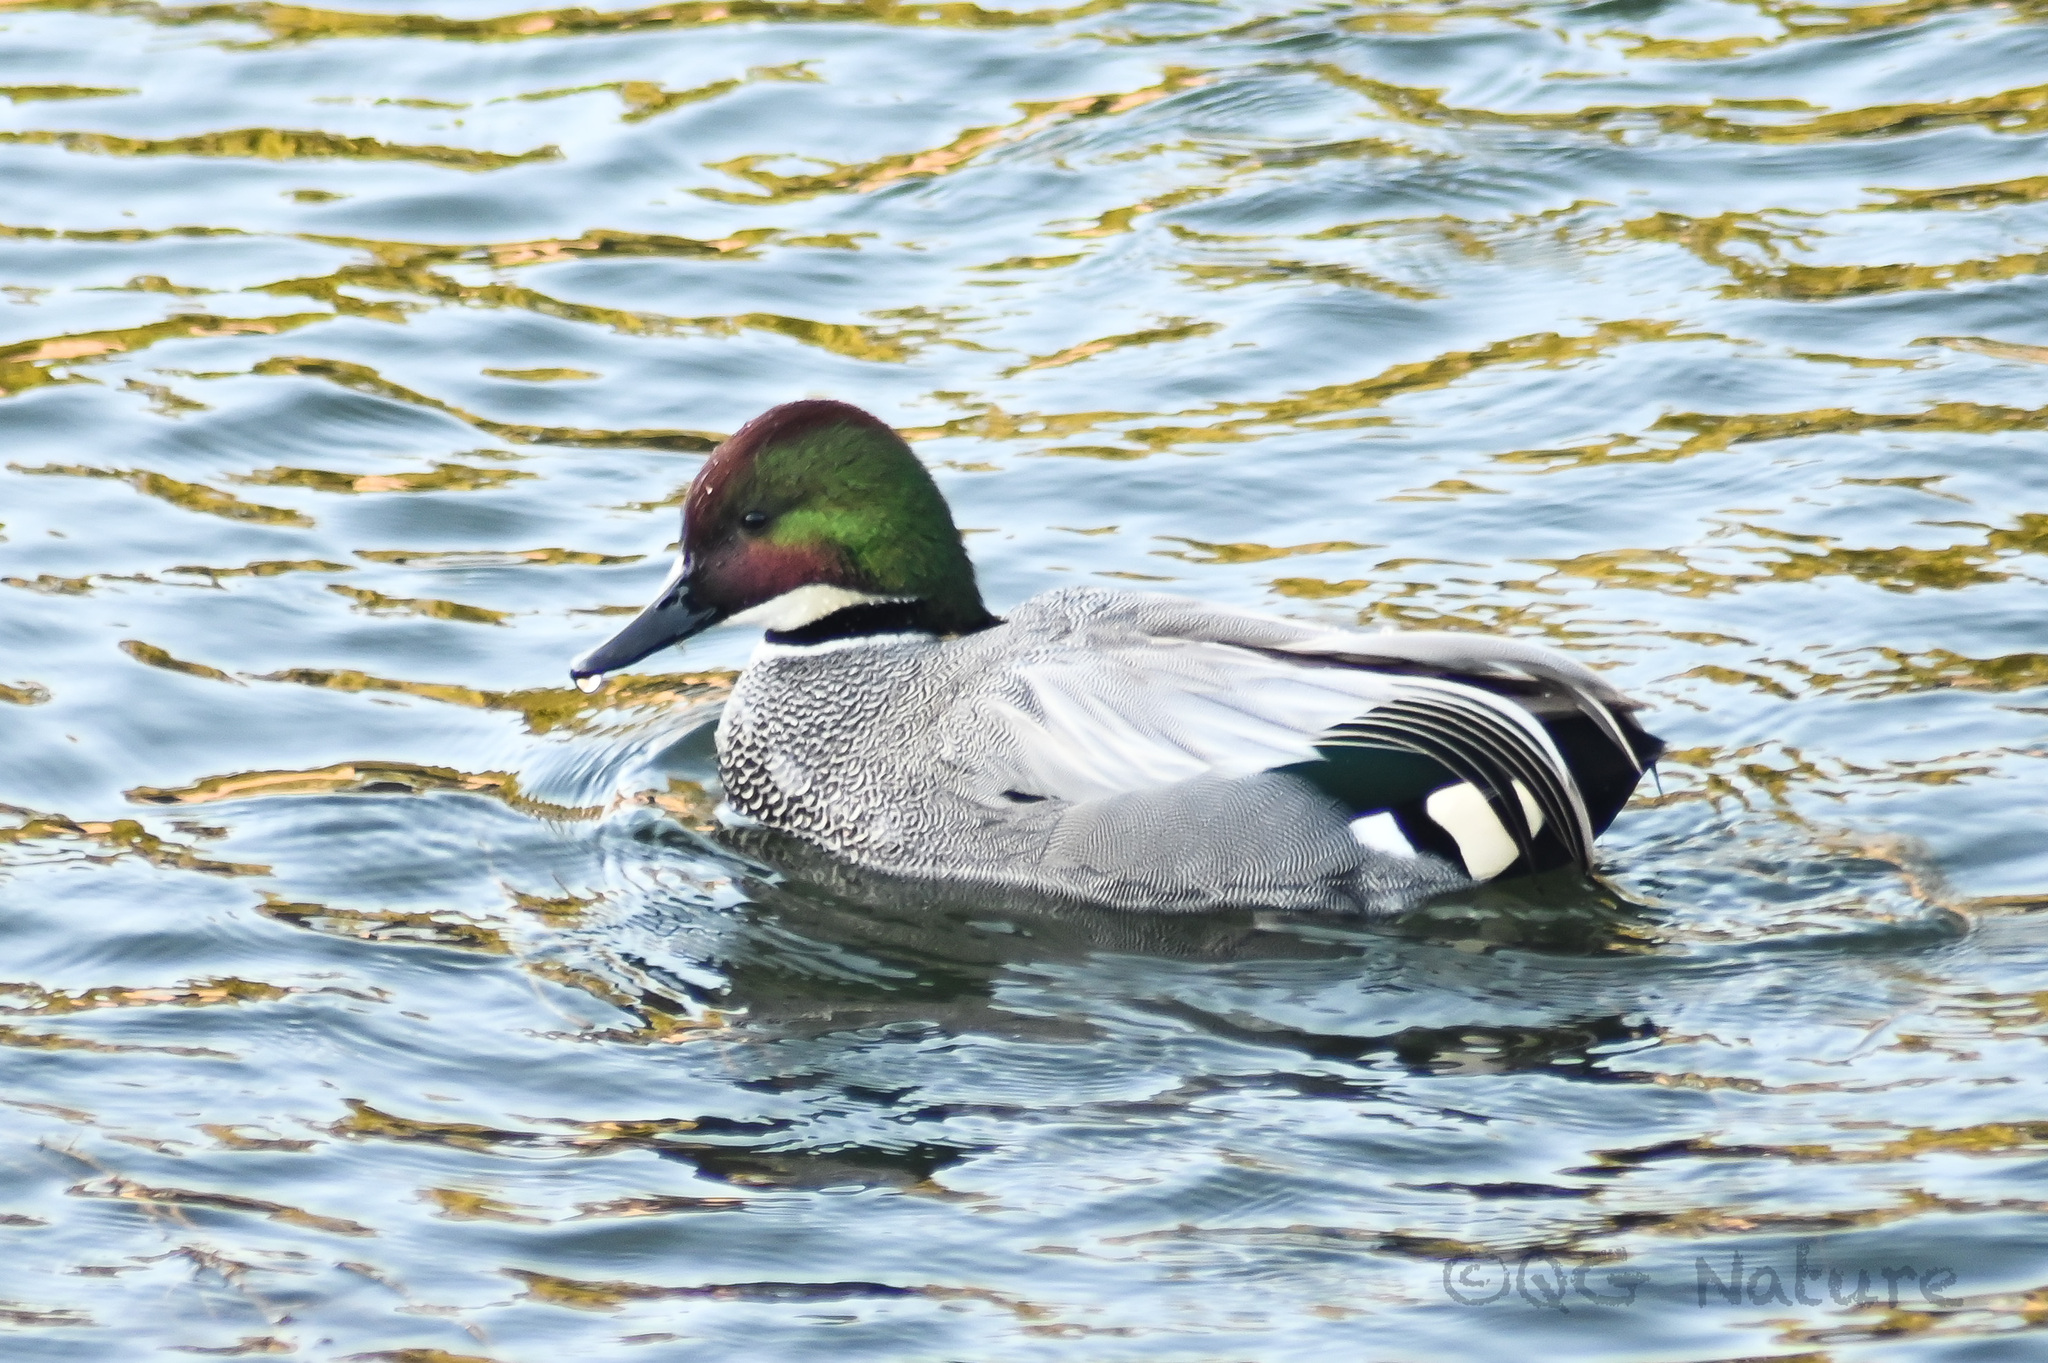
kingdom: Animalia
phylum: Chordata
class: Aves
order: Anseriformes
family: Anatidae
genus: Mareca
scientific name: Mareca falcata
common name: Falcated duck
